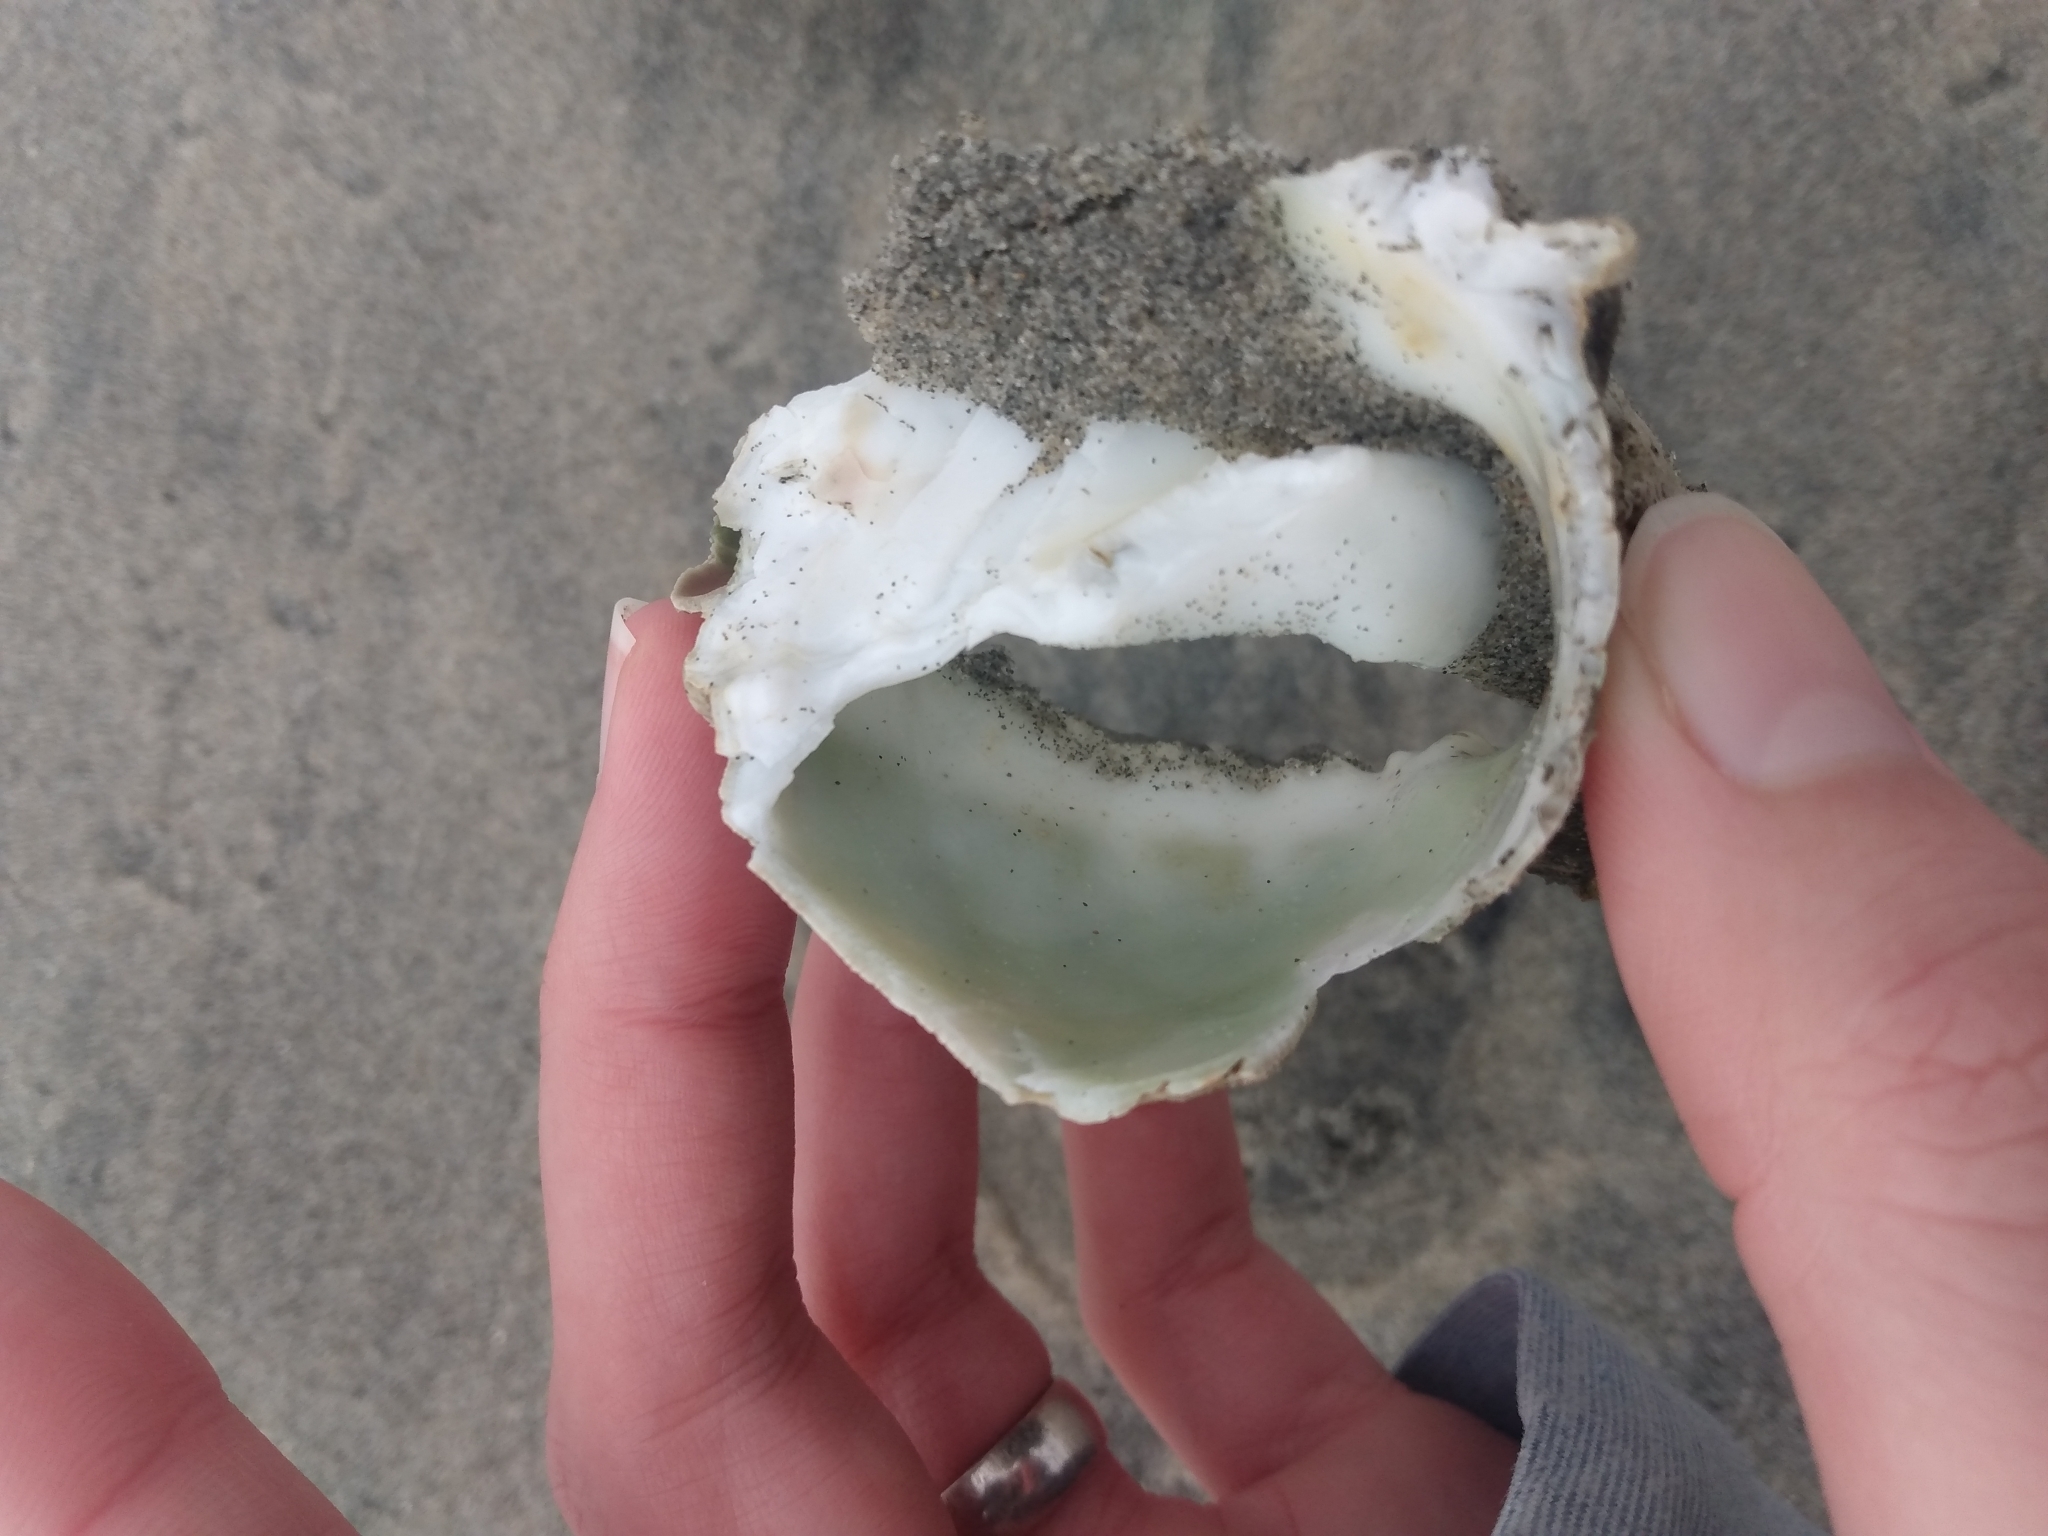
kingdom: Animalia
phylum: Mollusca
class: Gastropoda
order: Littorinimorpha
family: Bursidae
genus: Crossata
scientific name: Crossata californica
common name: California frogsnail
